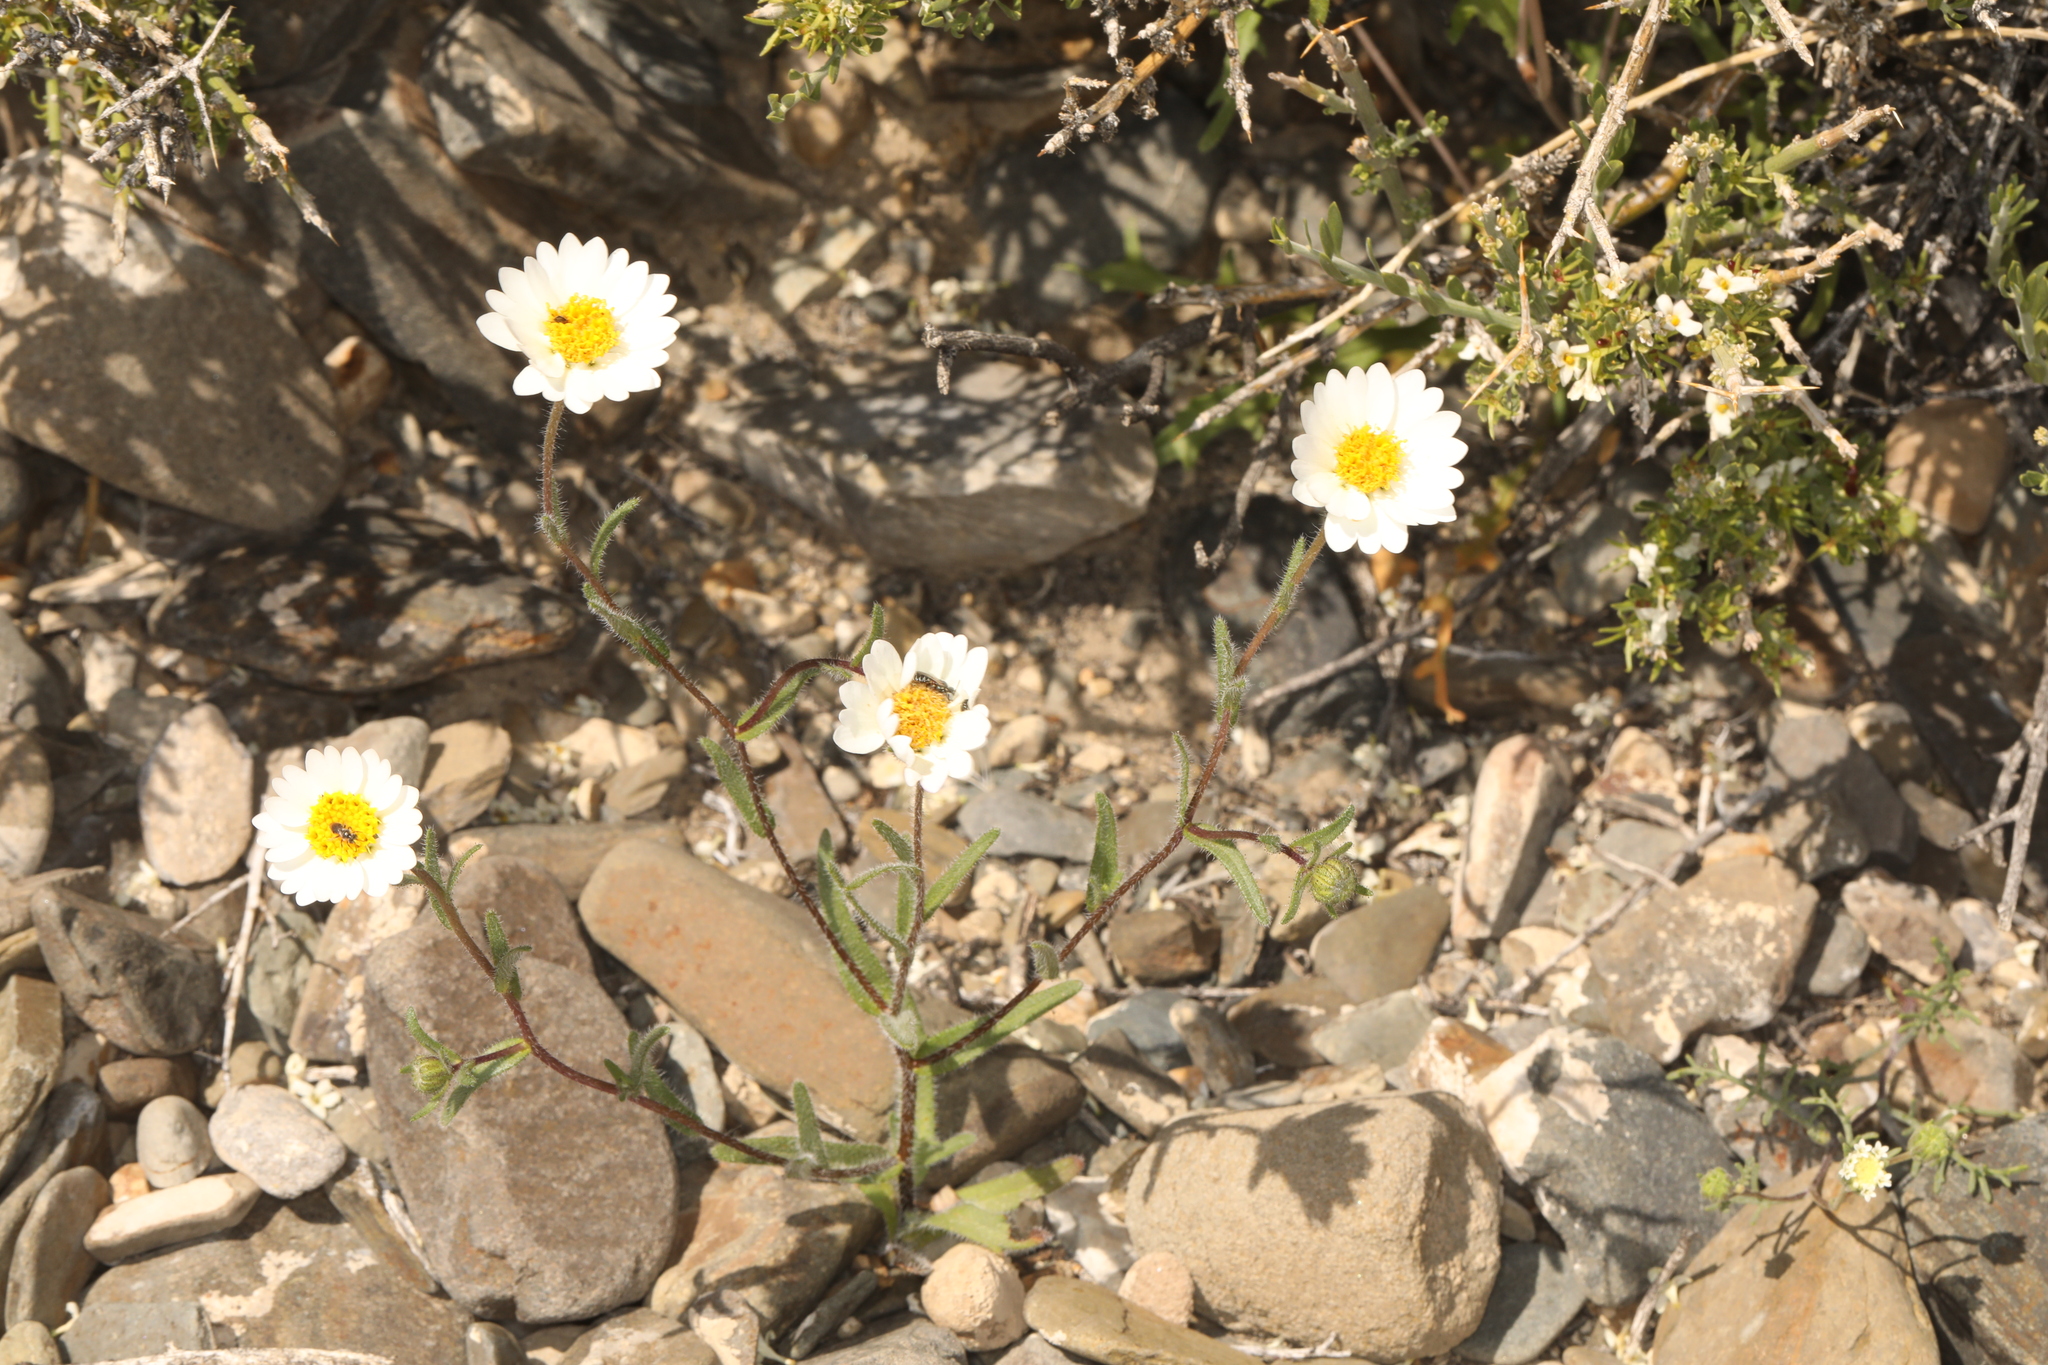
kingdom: Plantae
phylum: Tracheophyta
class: Magnoliopsida
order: Asterales
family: Asteraceae
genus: Layia
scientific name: Layia glandulosa
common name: White layia
